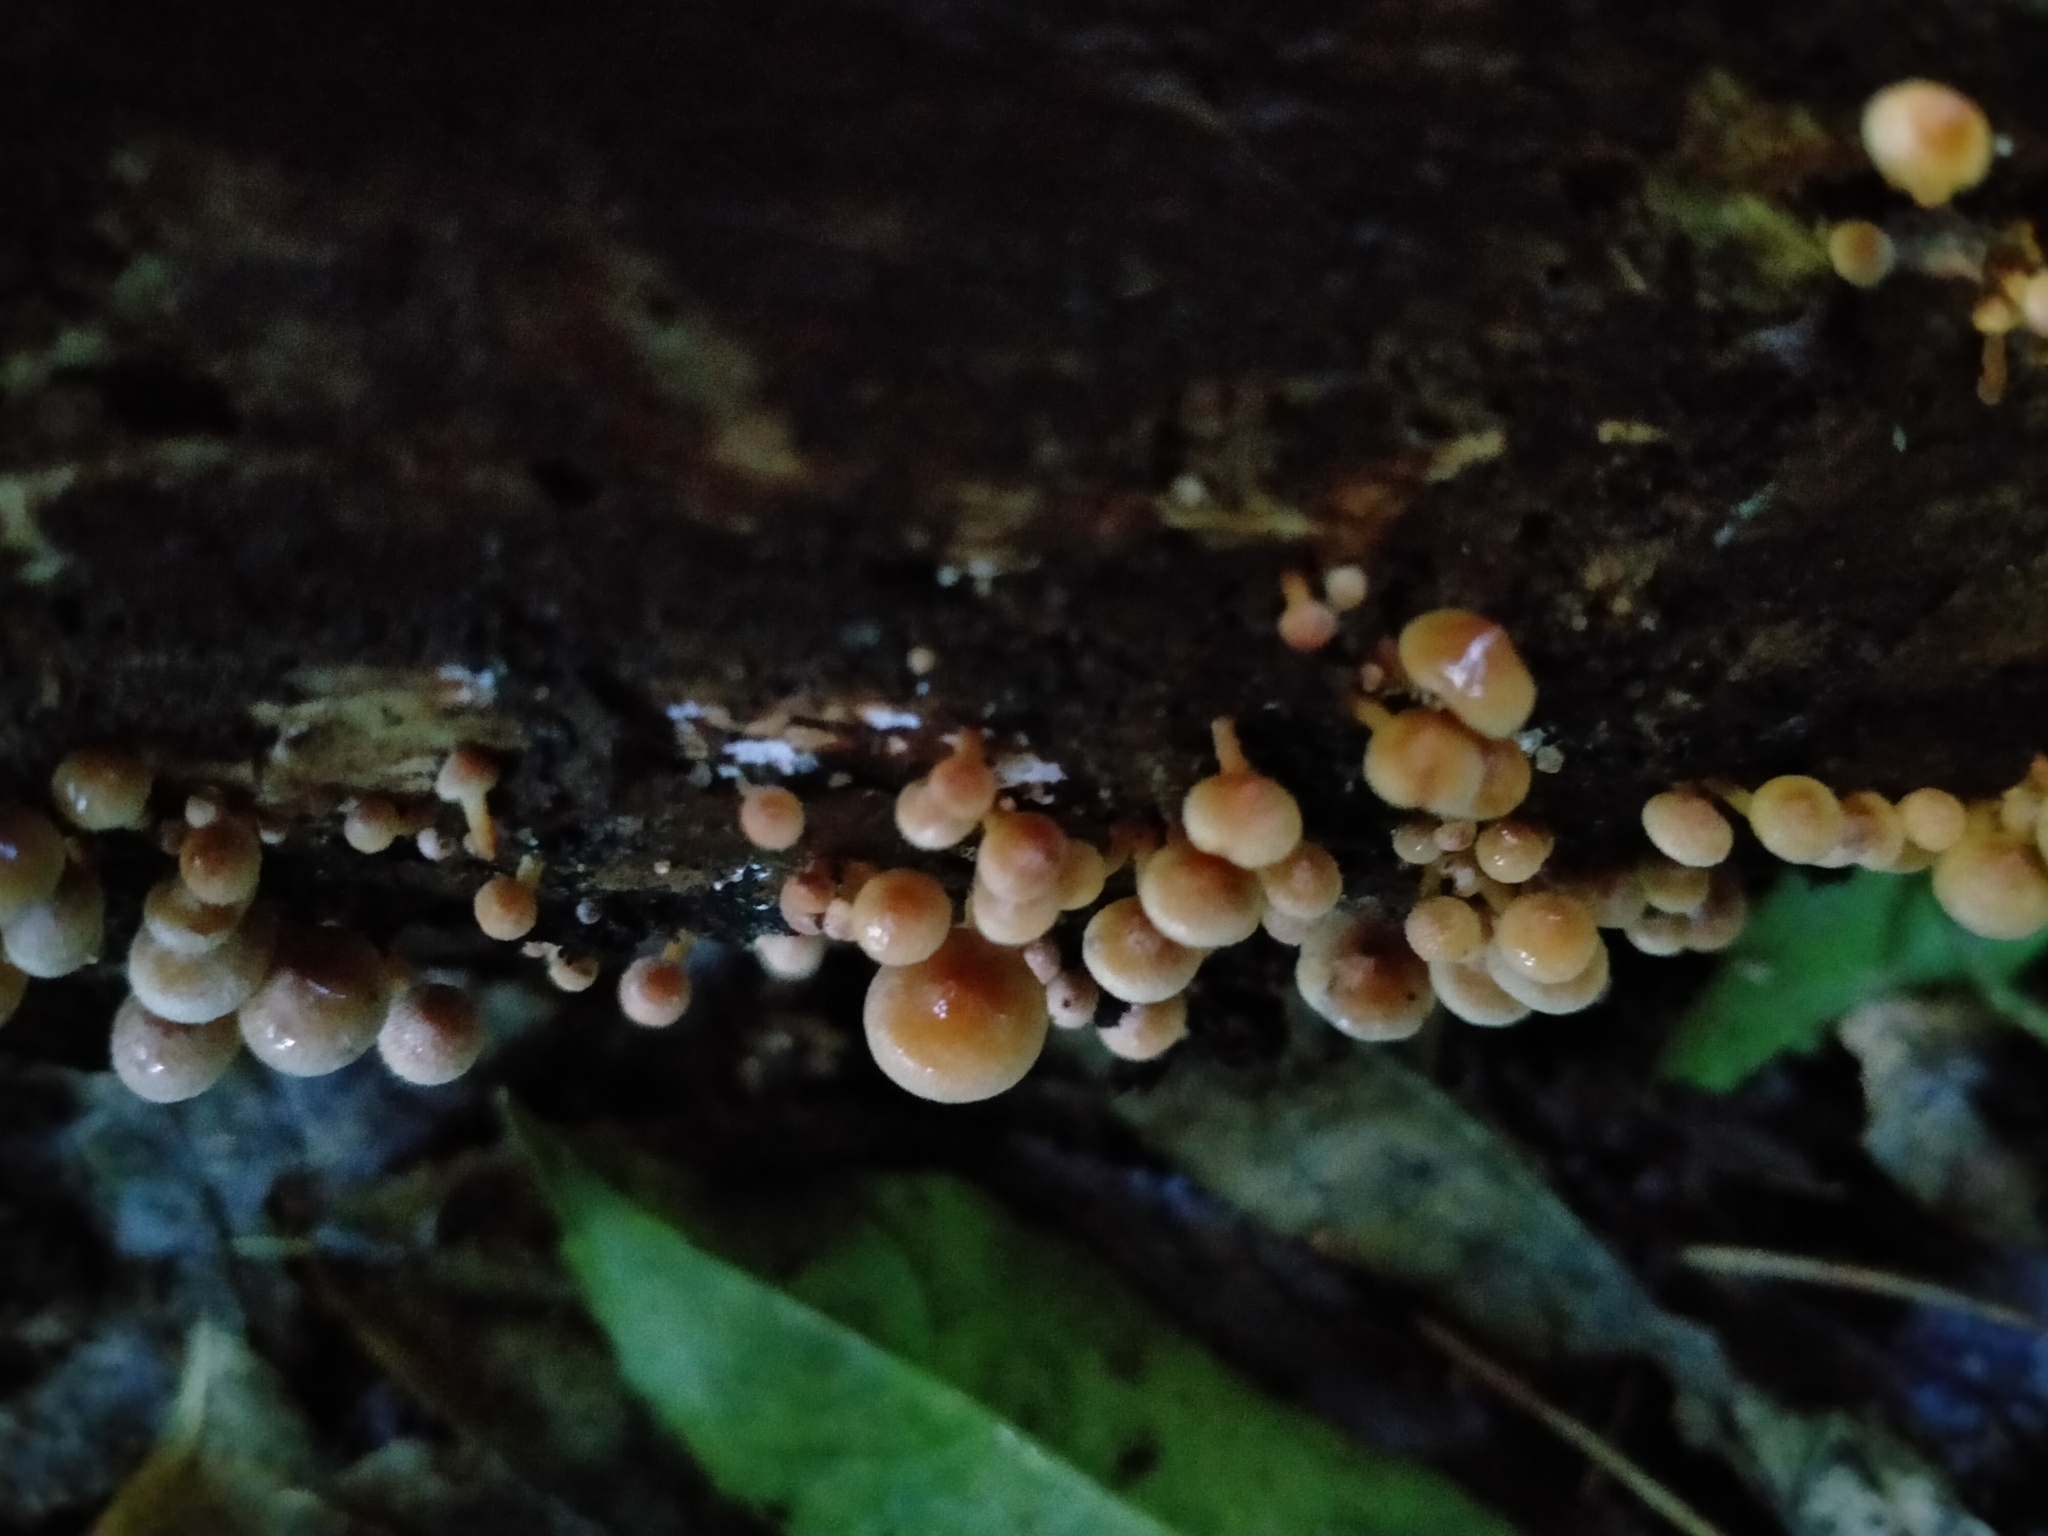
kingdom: Fungi
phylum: Basidiomycota
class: Agaricomycetes
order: Agaricales
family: Strophariaceae
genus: Hypholoma
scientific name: Hypholoma acutum
